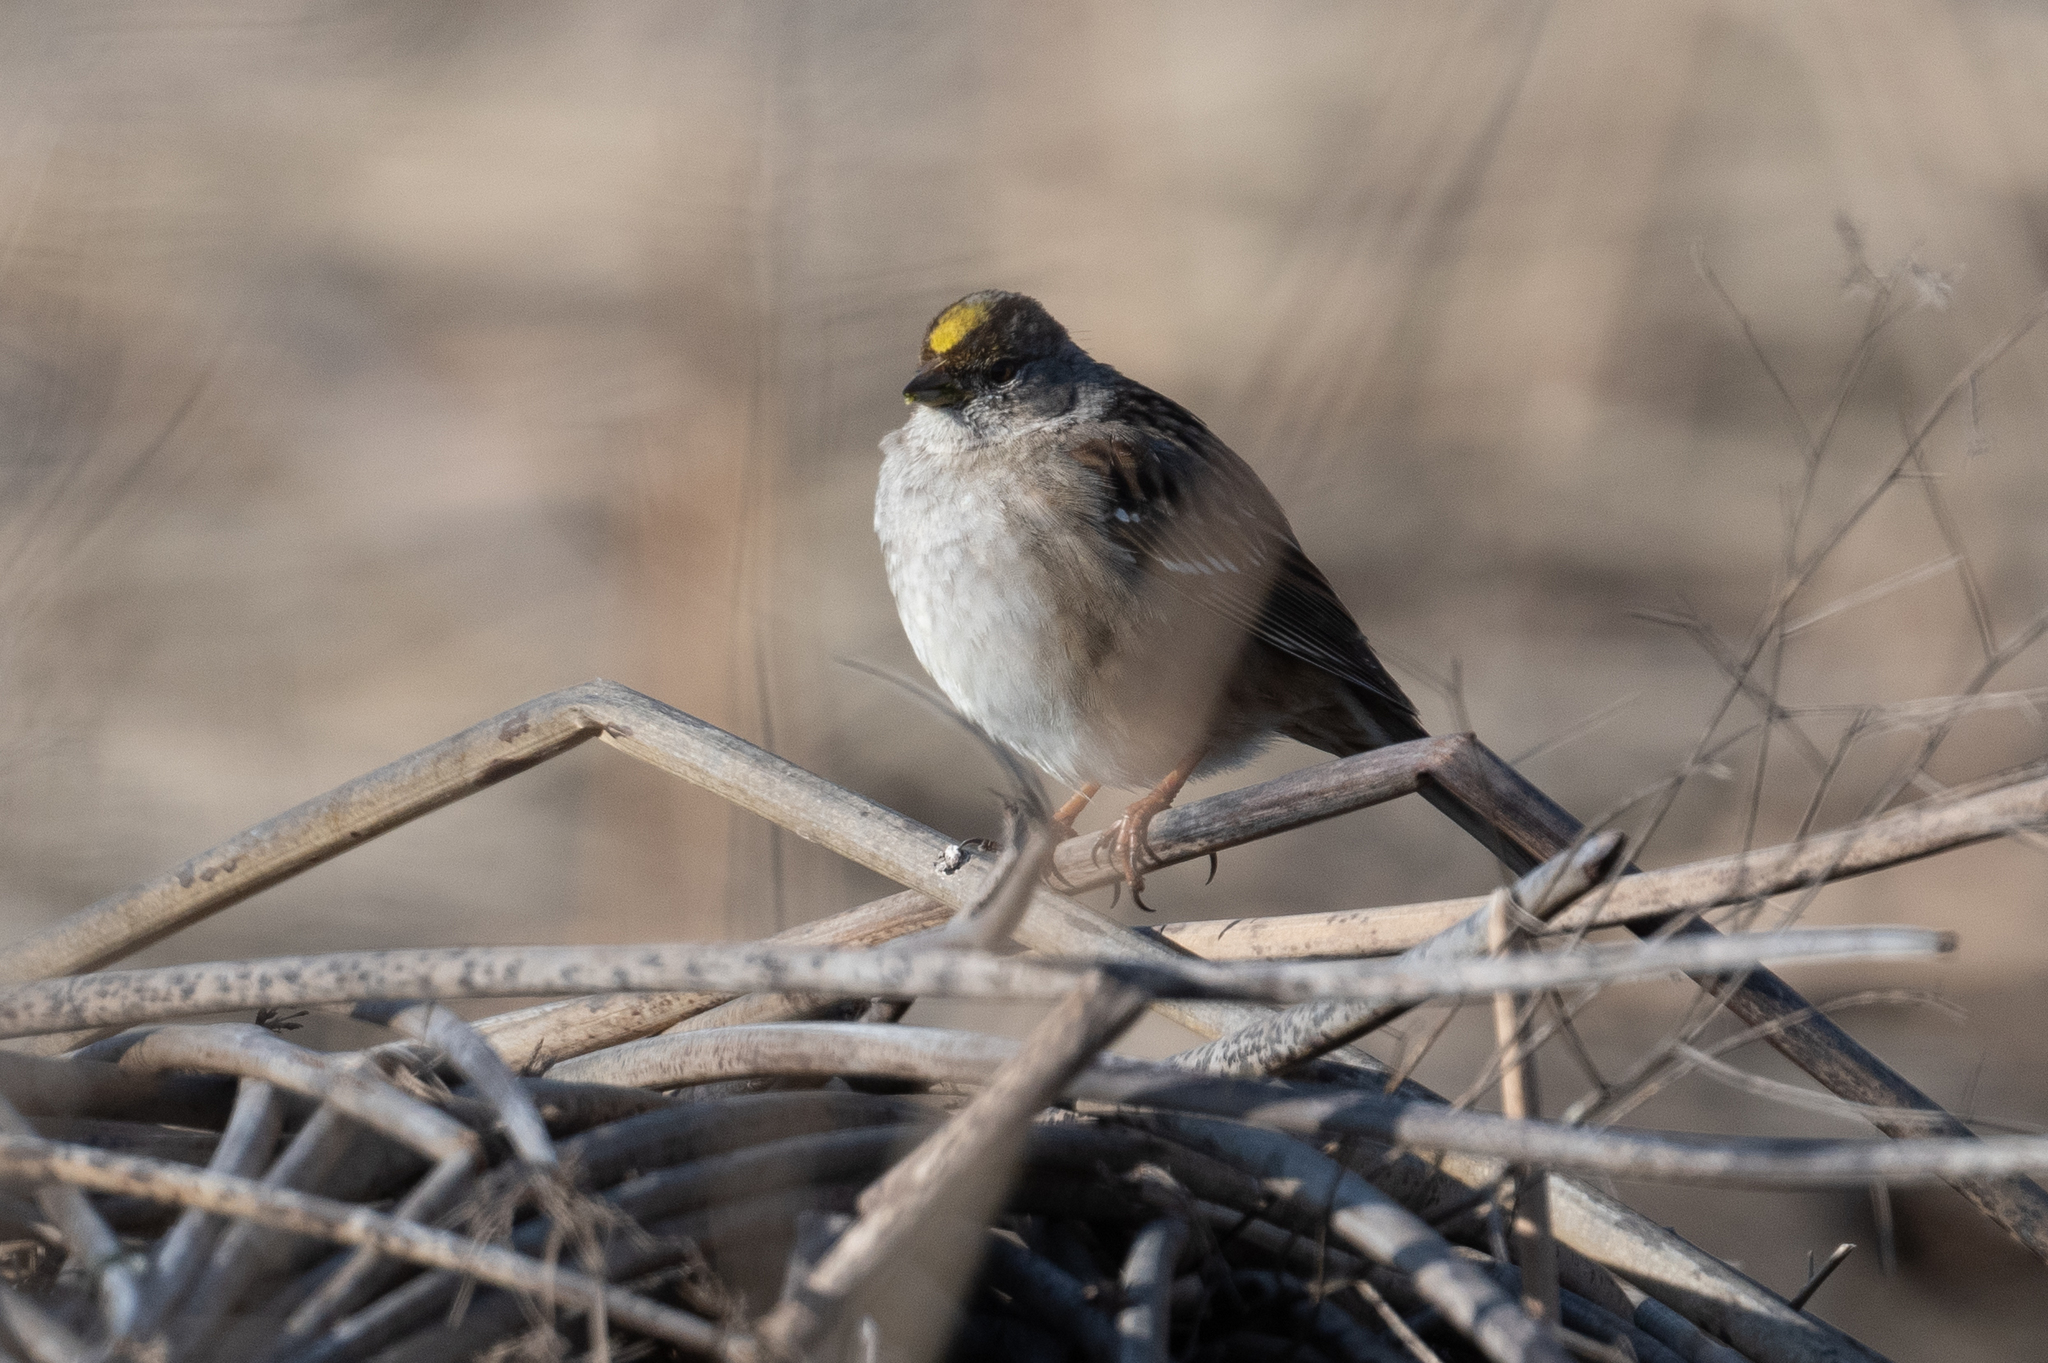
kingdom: Animalia
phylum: Chordata
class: Aves
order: Passeriformes
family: Passerellidae
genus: Zonotrichia
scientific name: Zonotrichia atricapilla
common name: Golden-crowned sparrow
